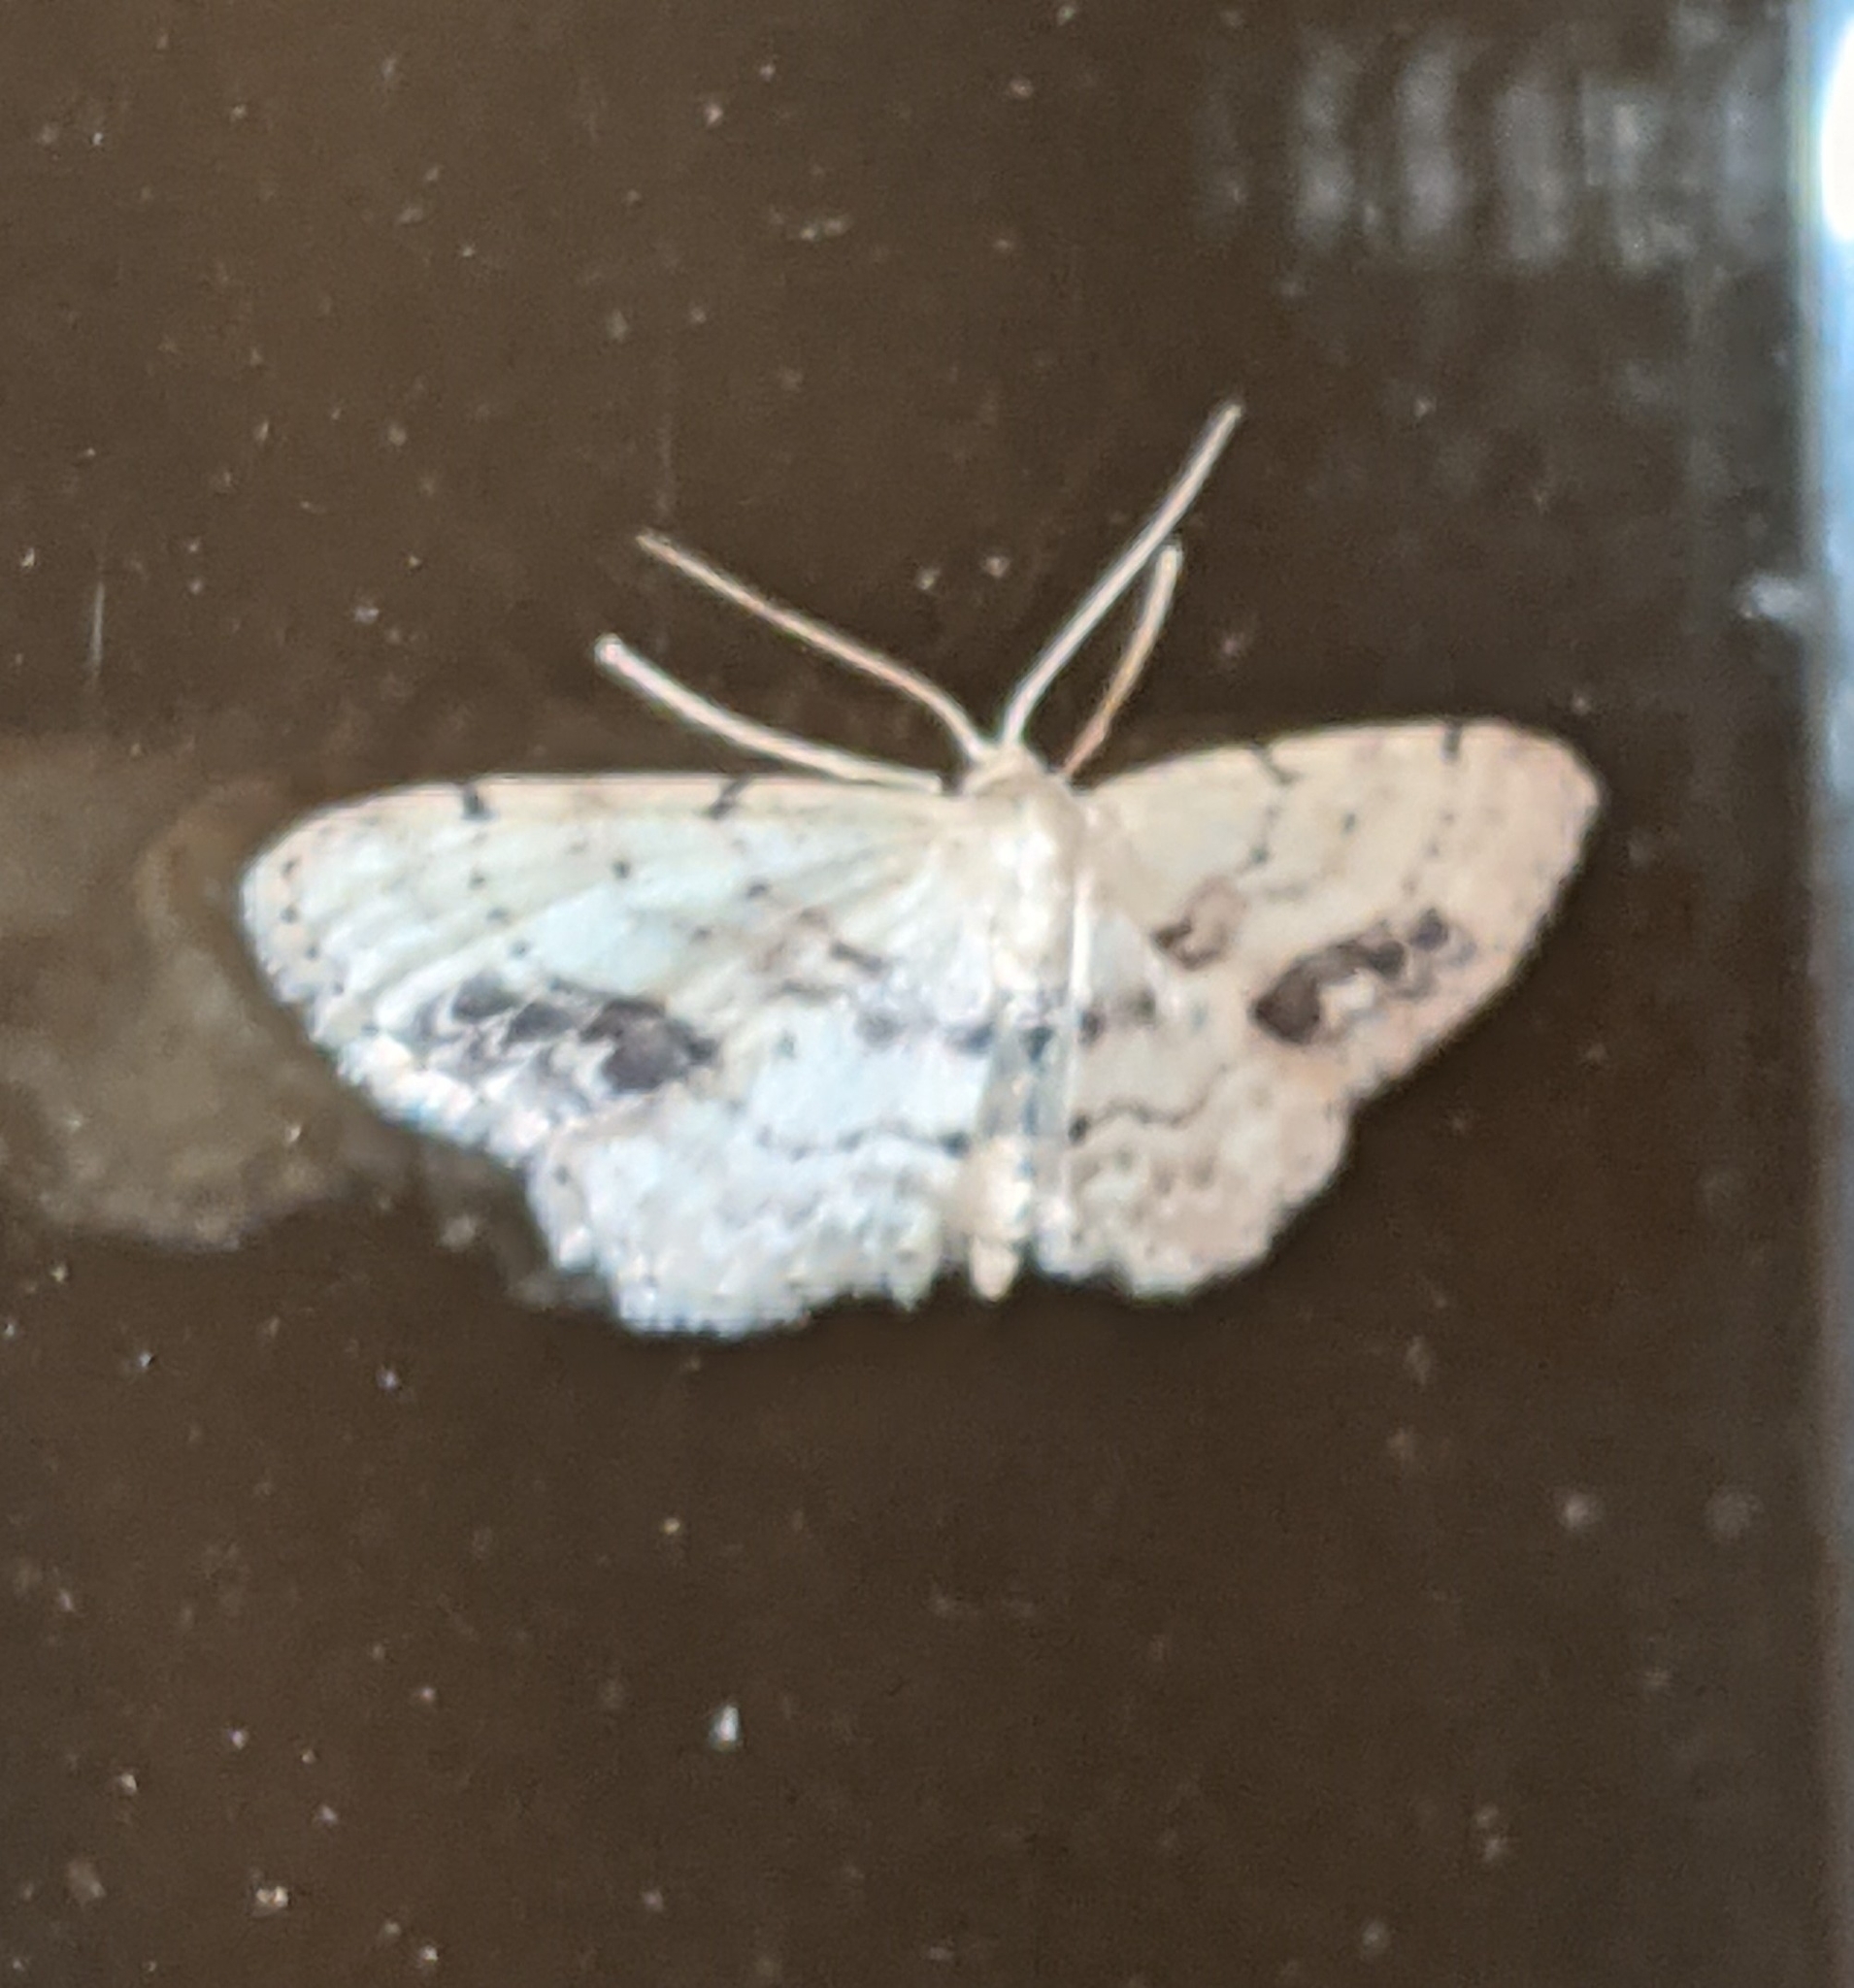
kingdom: Animalia
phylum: Arthropoda
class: Insecta
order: Lepidoptera
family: Geometridae
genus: Idaea
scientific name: Idaea dimidiata
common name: Single-dotted wave
